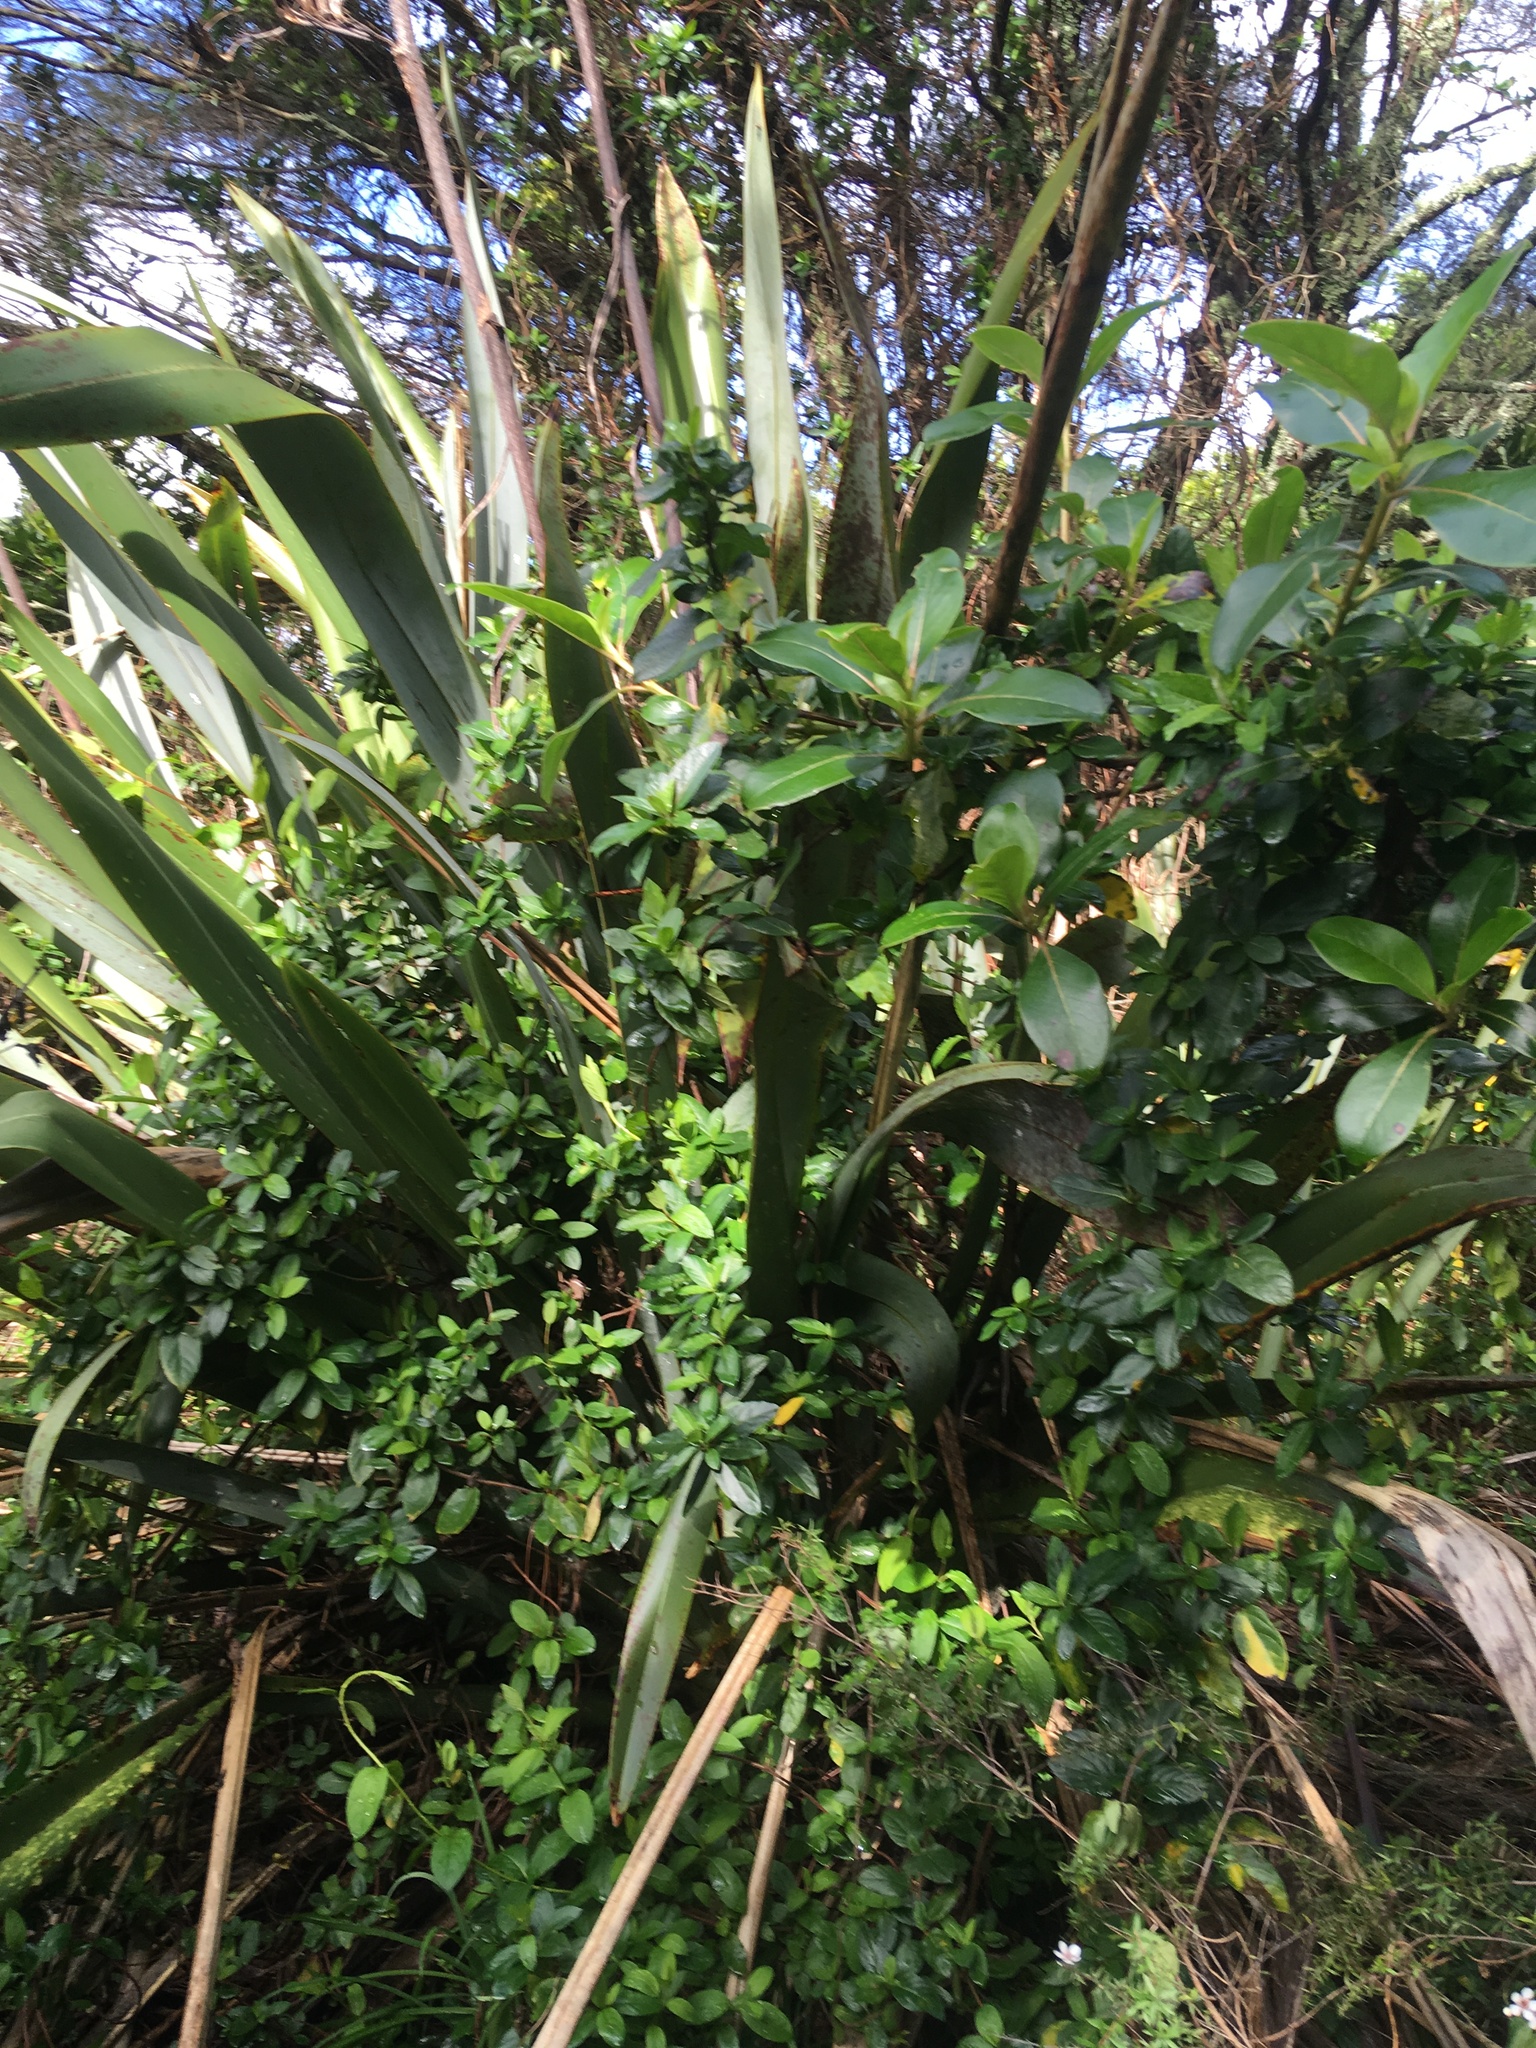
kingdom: Plantae
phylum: Tracheophyta
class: Magnoliopsida
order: Gentianales
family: Rubiaceae
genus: Coprosma
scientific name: Coprosma robusta
